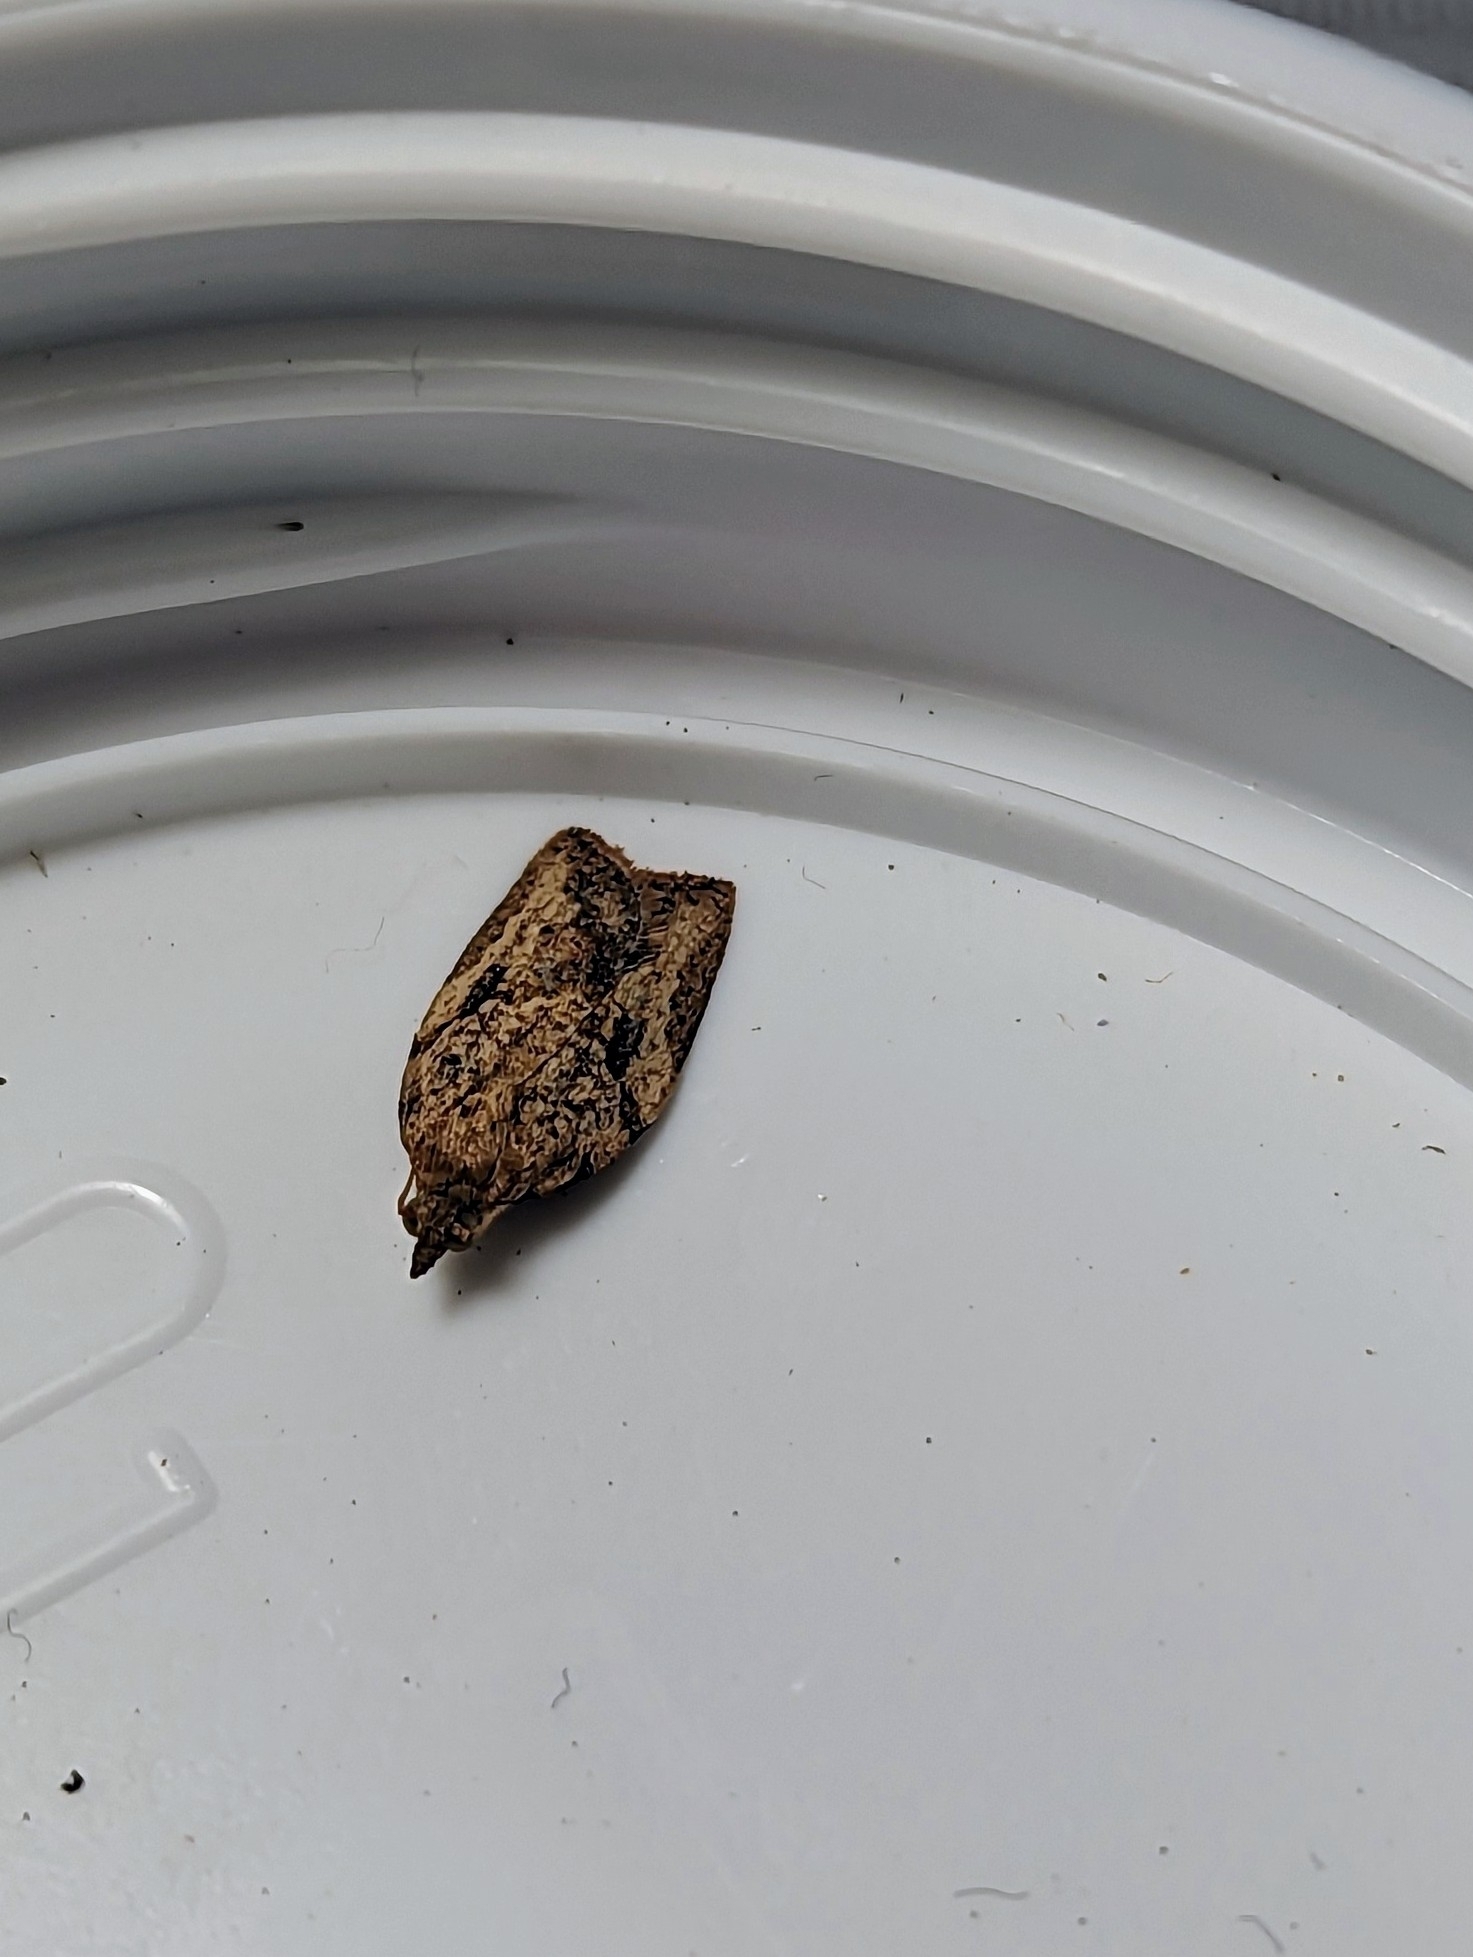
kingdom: Animalia
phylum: Arthropoda
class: Insecta
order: Lepidoptera
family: Tortricidae
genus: Epiphyas
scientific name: Epiphyas postvittana
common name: Light brown apple moth
